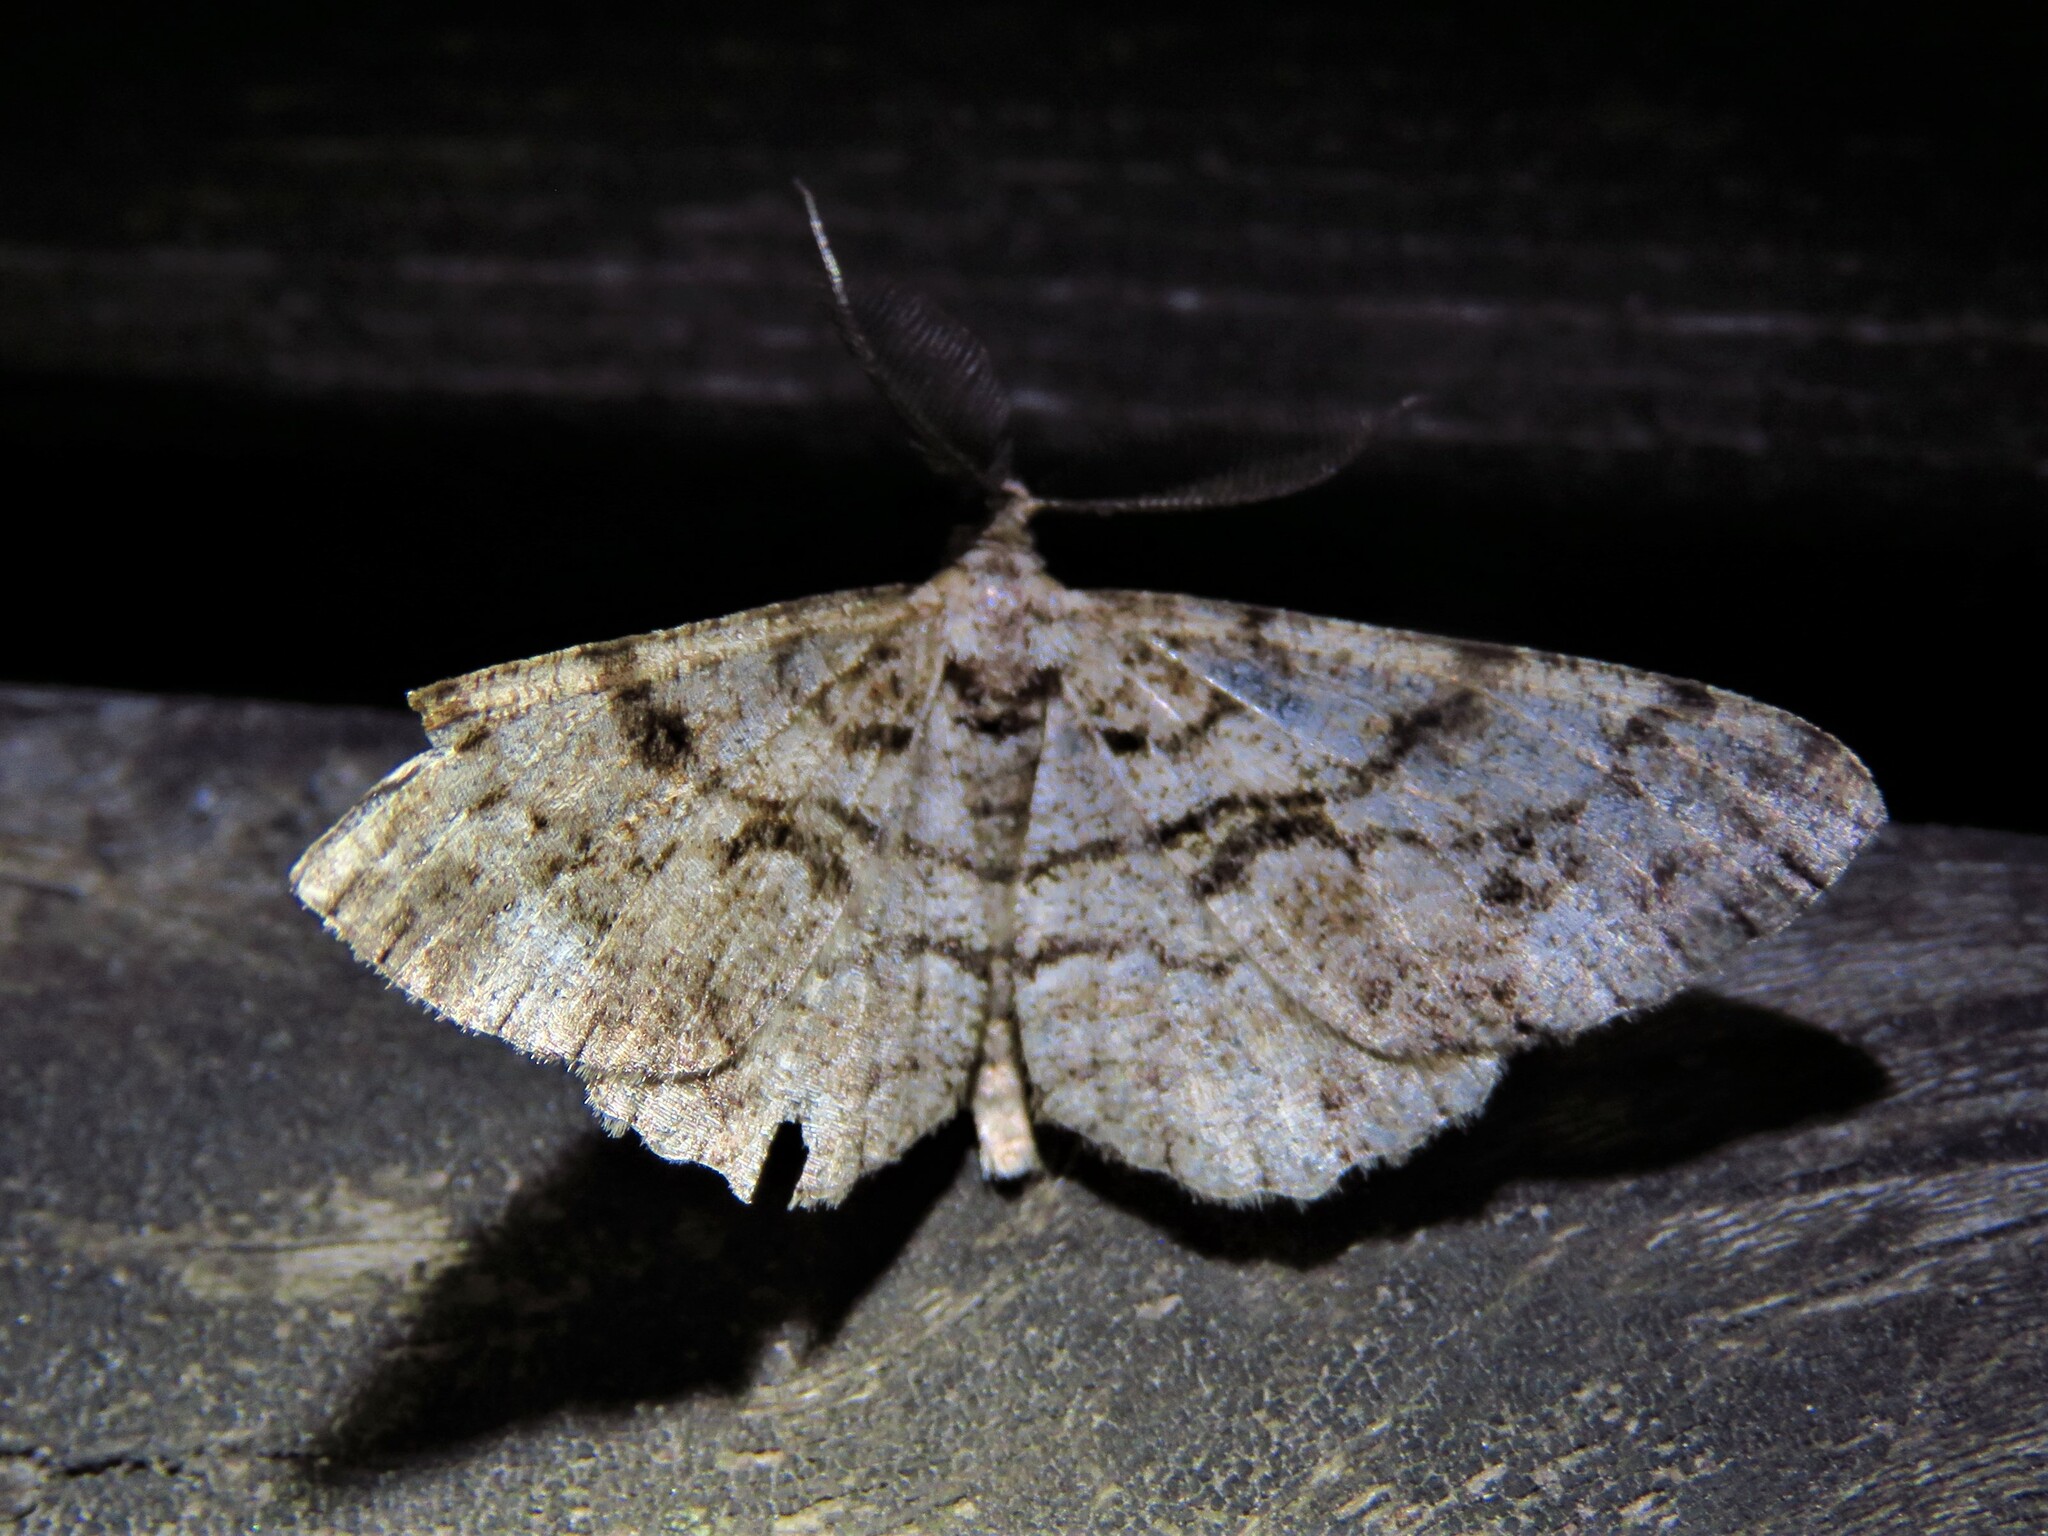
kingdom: Animalia
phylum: Arthropoda
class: Insecta
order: Lepidoptera
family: Geometridae
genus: Peribatodes
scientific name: Peribatodes secundaria
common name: Feathered beauty
